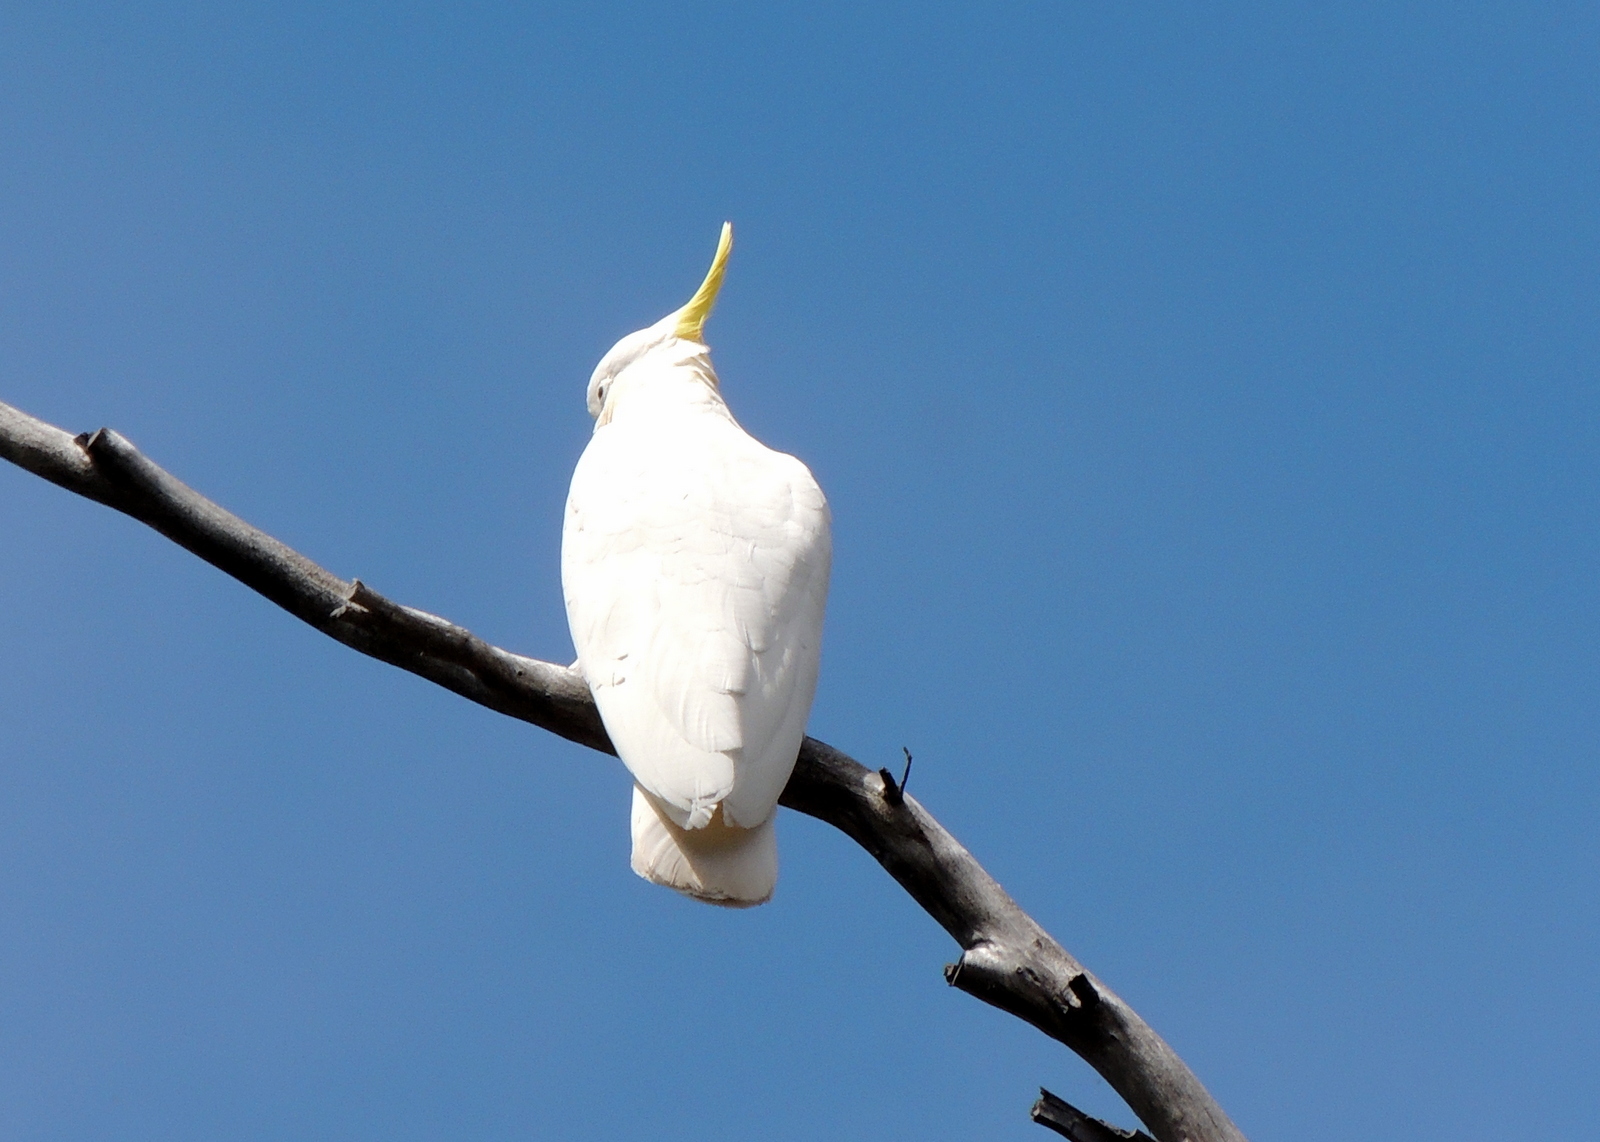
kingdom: Animalia
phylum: Chordata
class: Aves
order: Psittaciformes
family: Psittacidae
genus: Cacatua
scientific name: Cacatua galerita
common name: Sulphur-crested cockatoo
